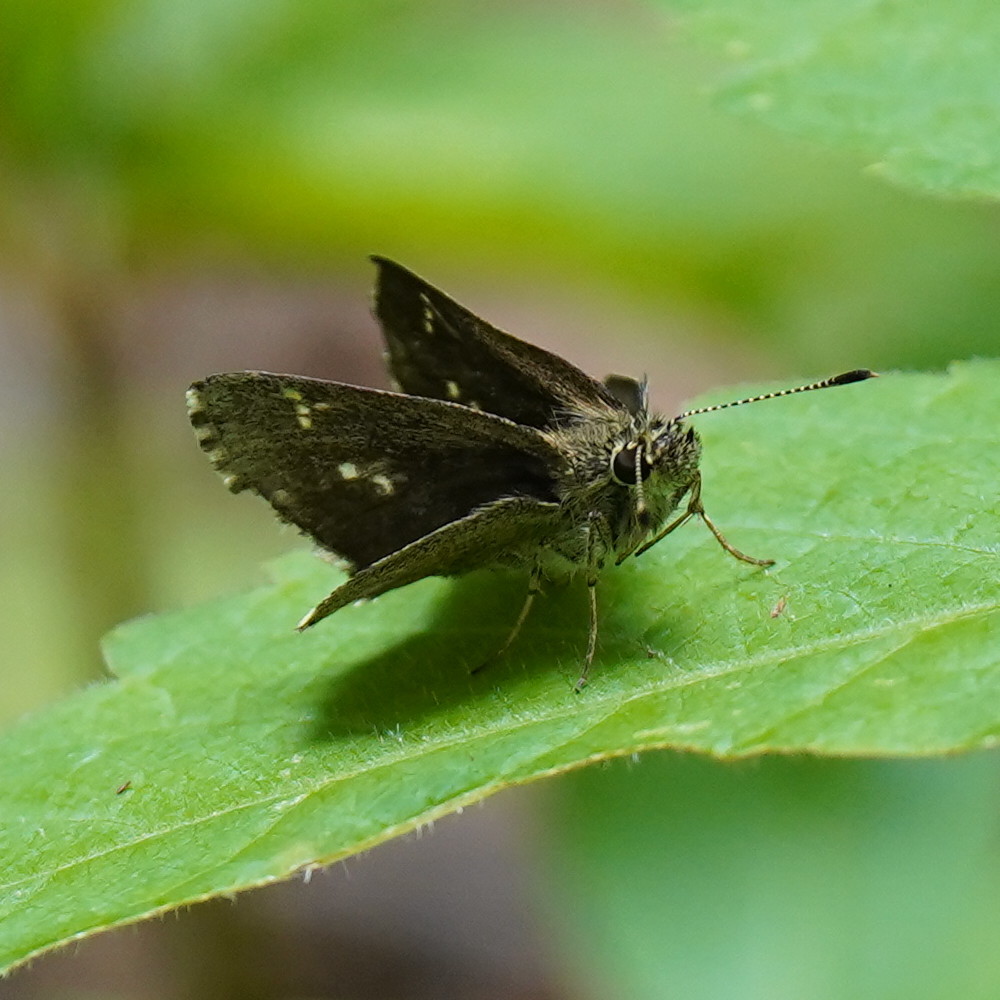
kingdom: Animalia
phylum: Arthropoda
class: Insecta
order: Lepidoptera
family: Hesperiidae
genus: Mastor
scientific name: Mastor hegon
